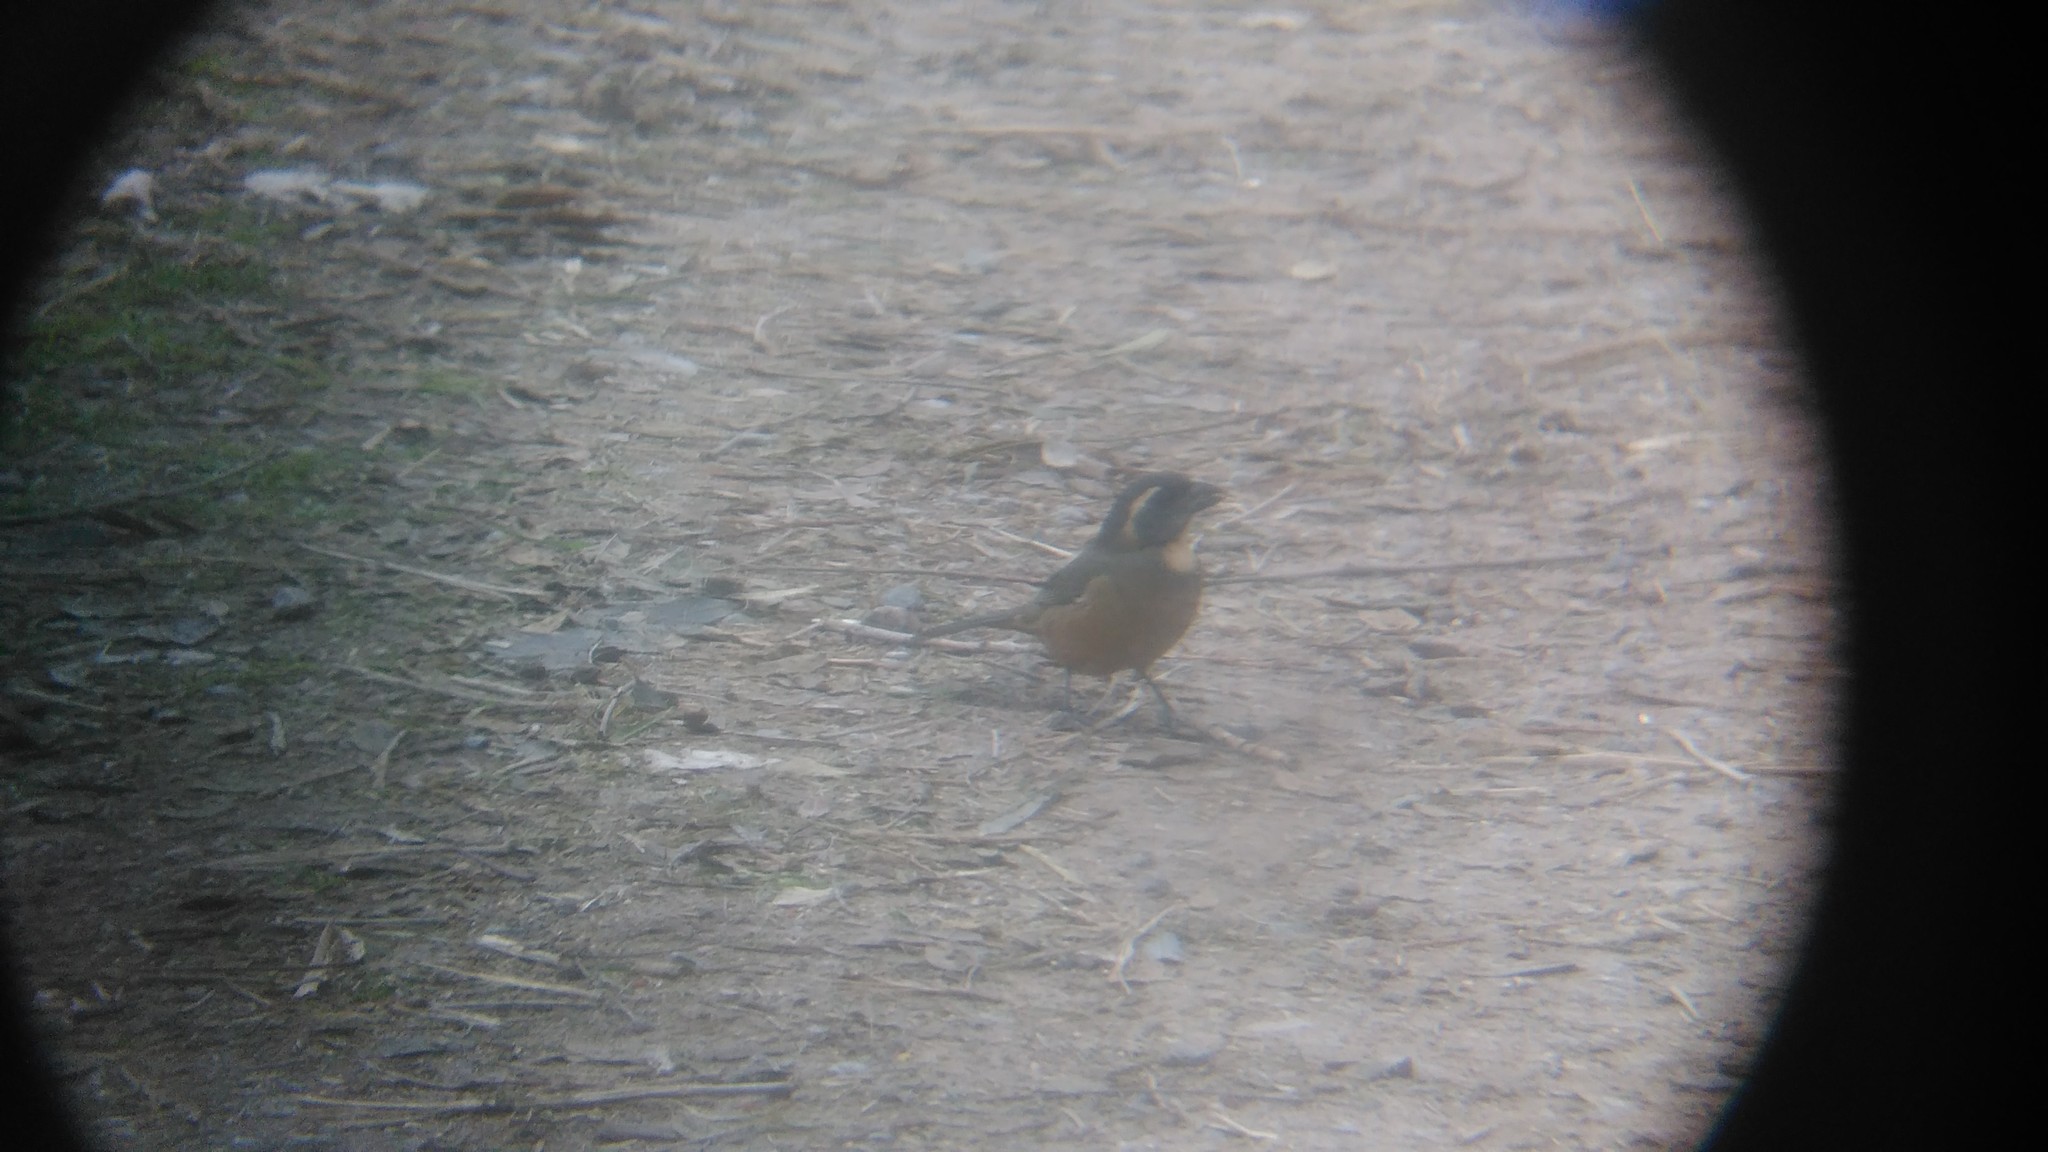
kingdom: Animalia
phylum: Chordata
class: Aves
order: Passeriformes
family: Thraupidae
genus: Saltator
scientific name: Saltator aurantiirostris
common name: Golden-billed saltator
